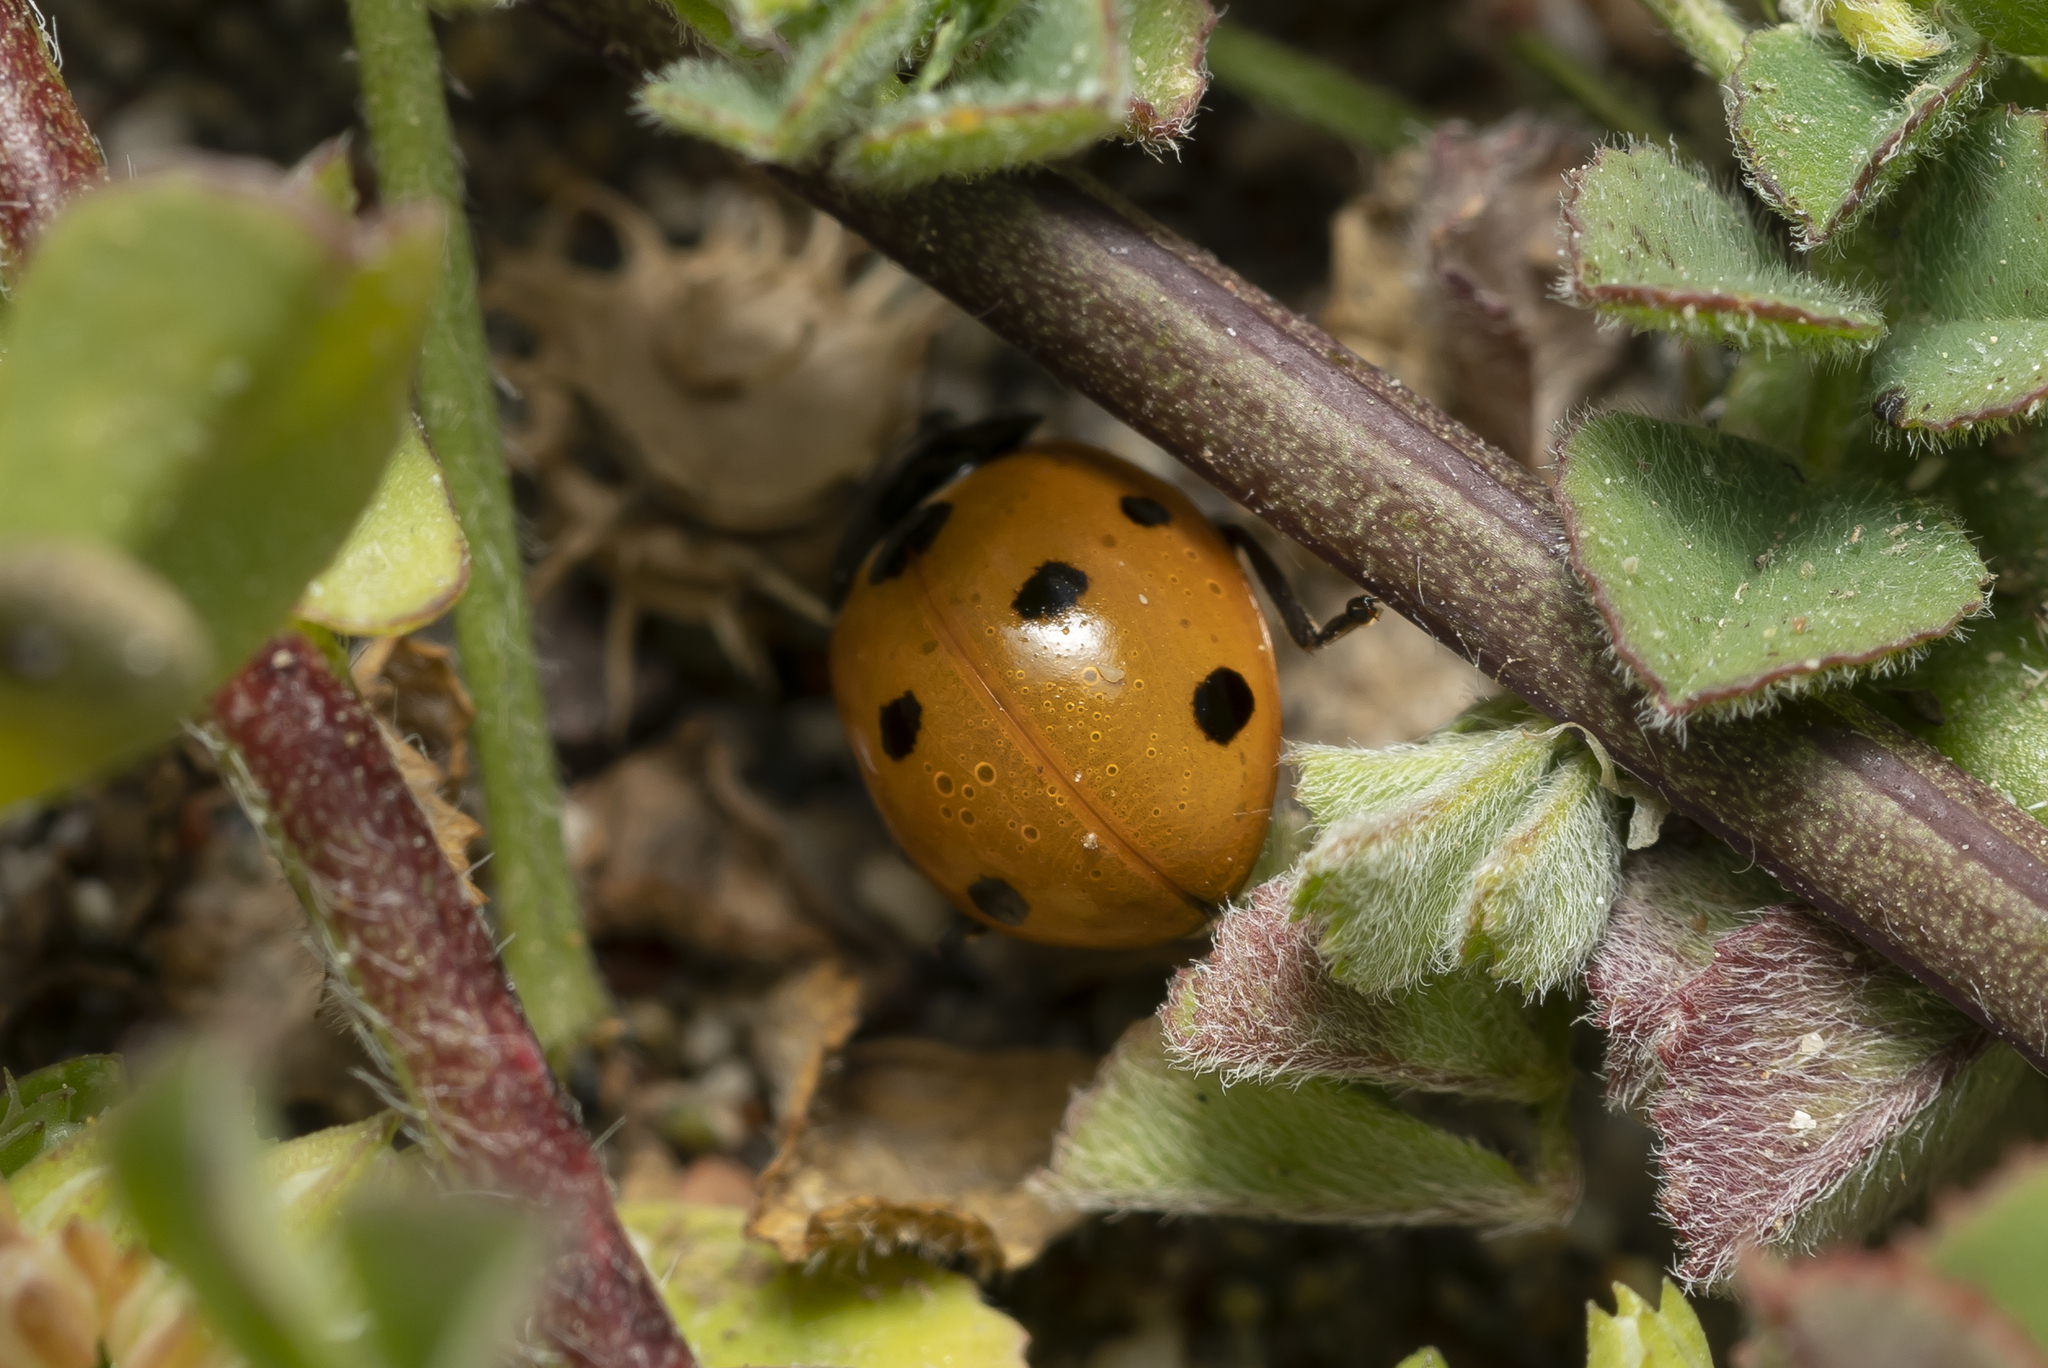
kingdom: Animalia
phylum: Arthropoda
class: Insecta
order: Coleoptera
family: Coccinellidae
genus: Coccinella
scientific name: Coccinella septempunctata
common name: Sevenspotted lady beetle
